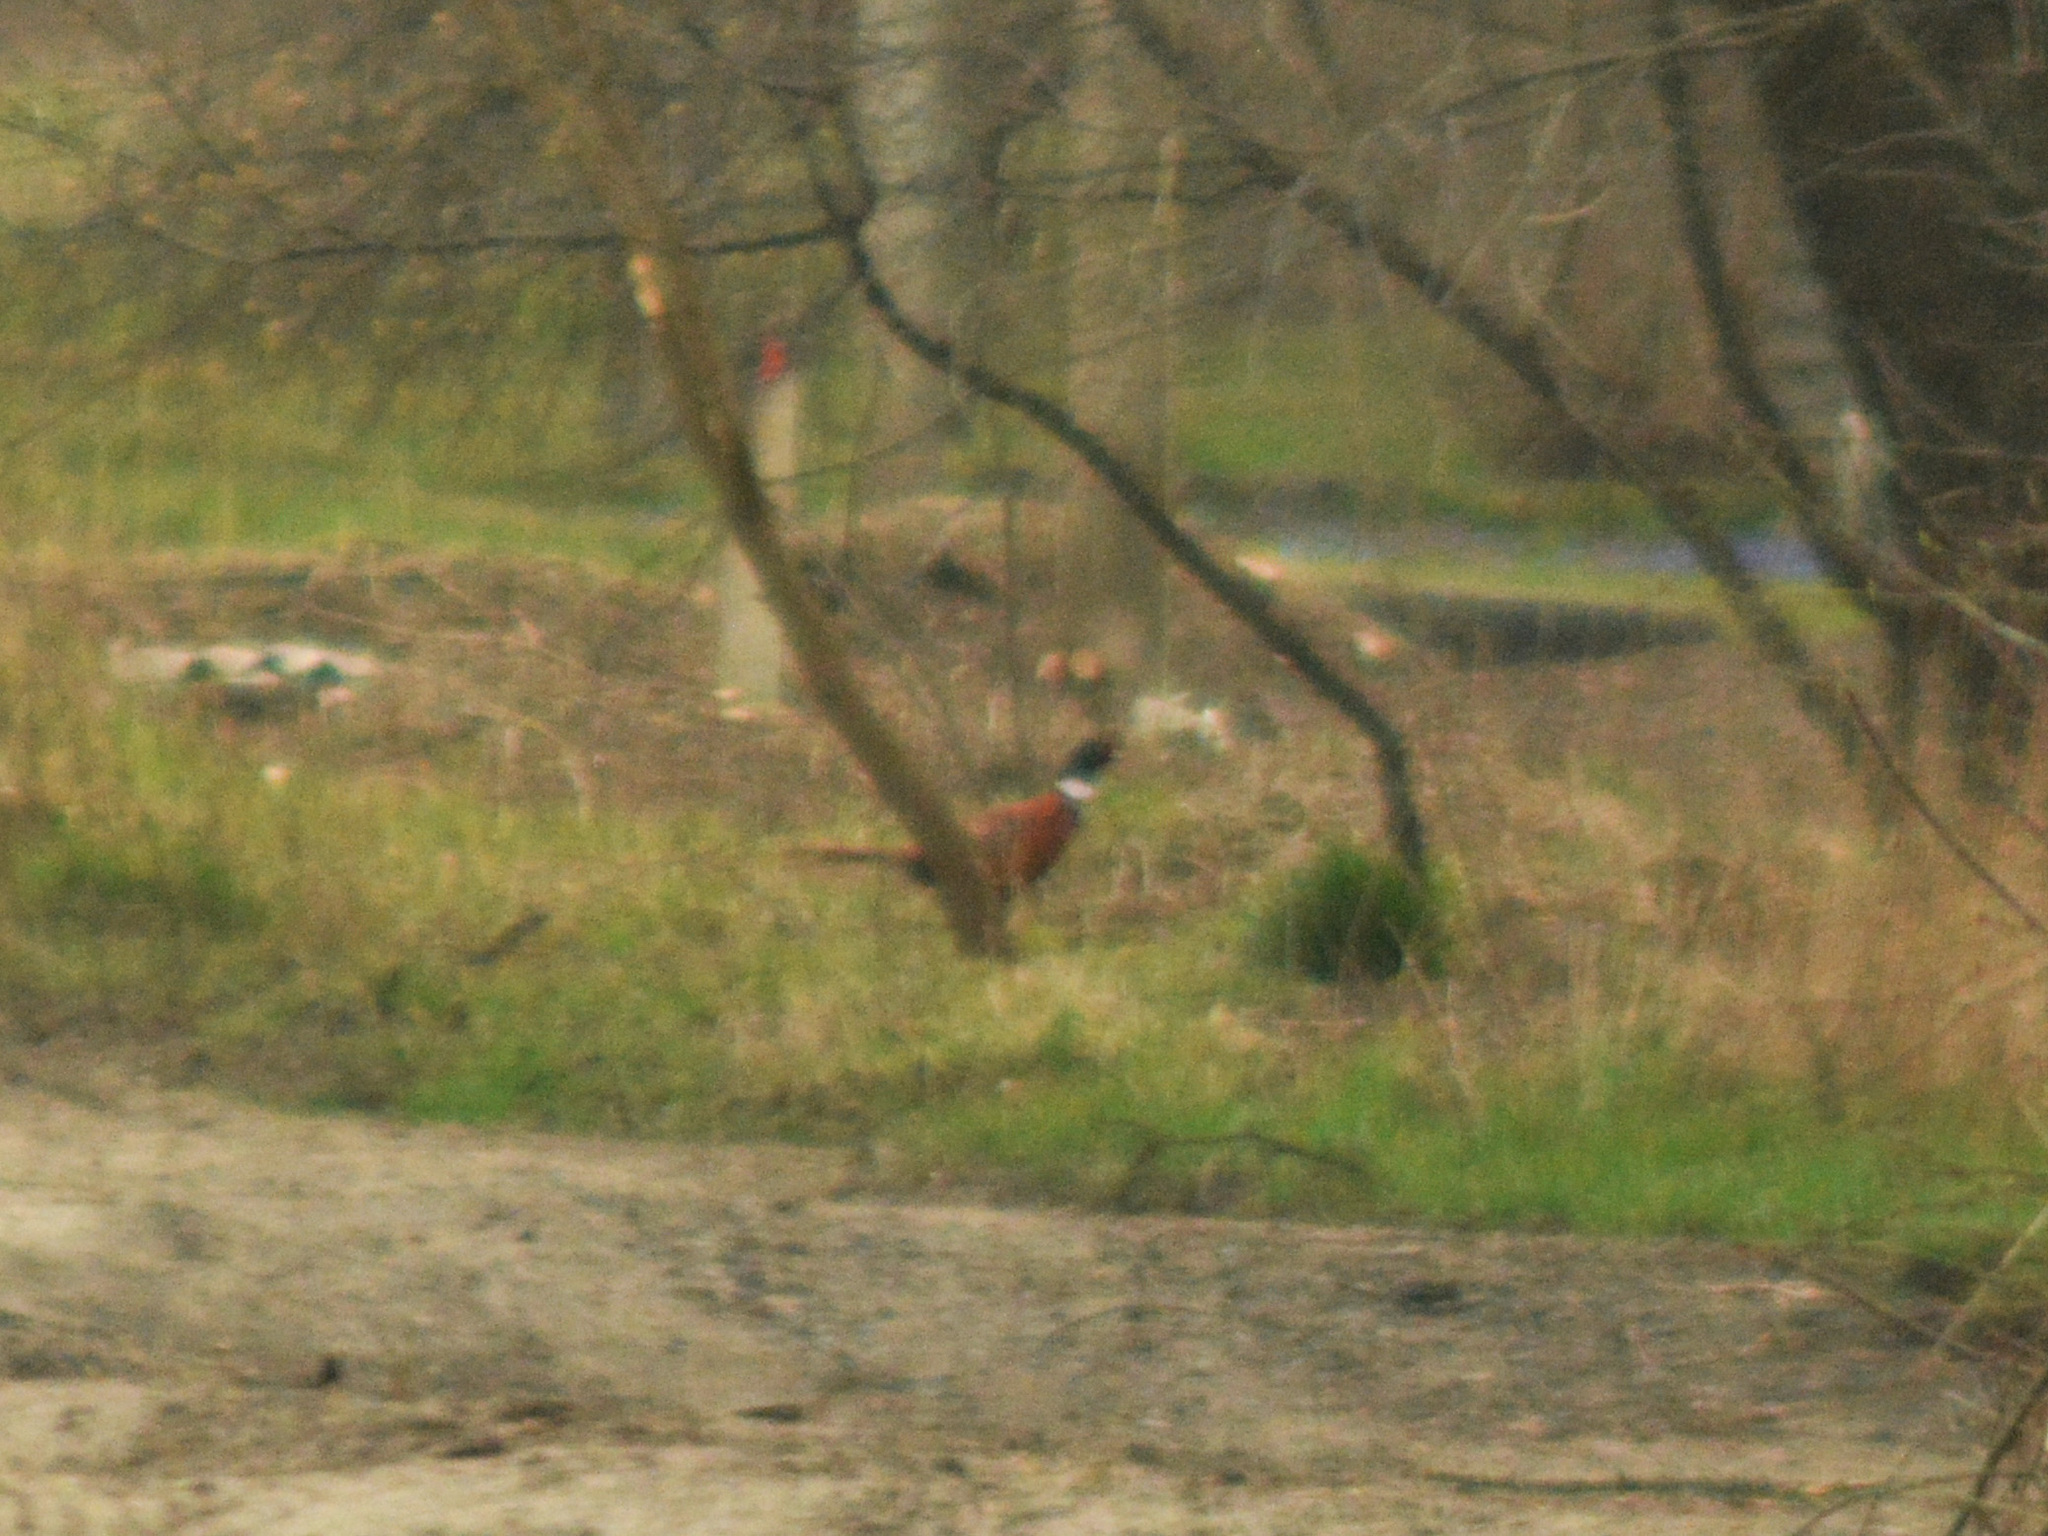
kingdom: Animalia
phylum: Chordata
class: Aves
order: Galliformes
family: Phasianidae
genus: Phasianus
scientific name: Phasianus colchicus
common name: Common pheasant
